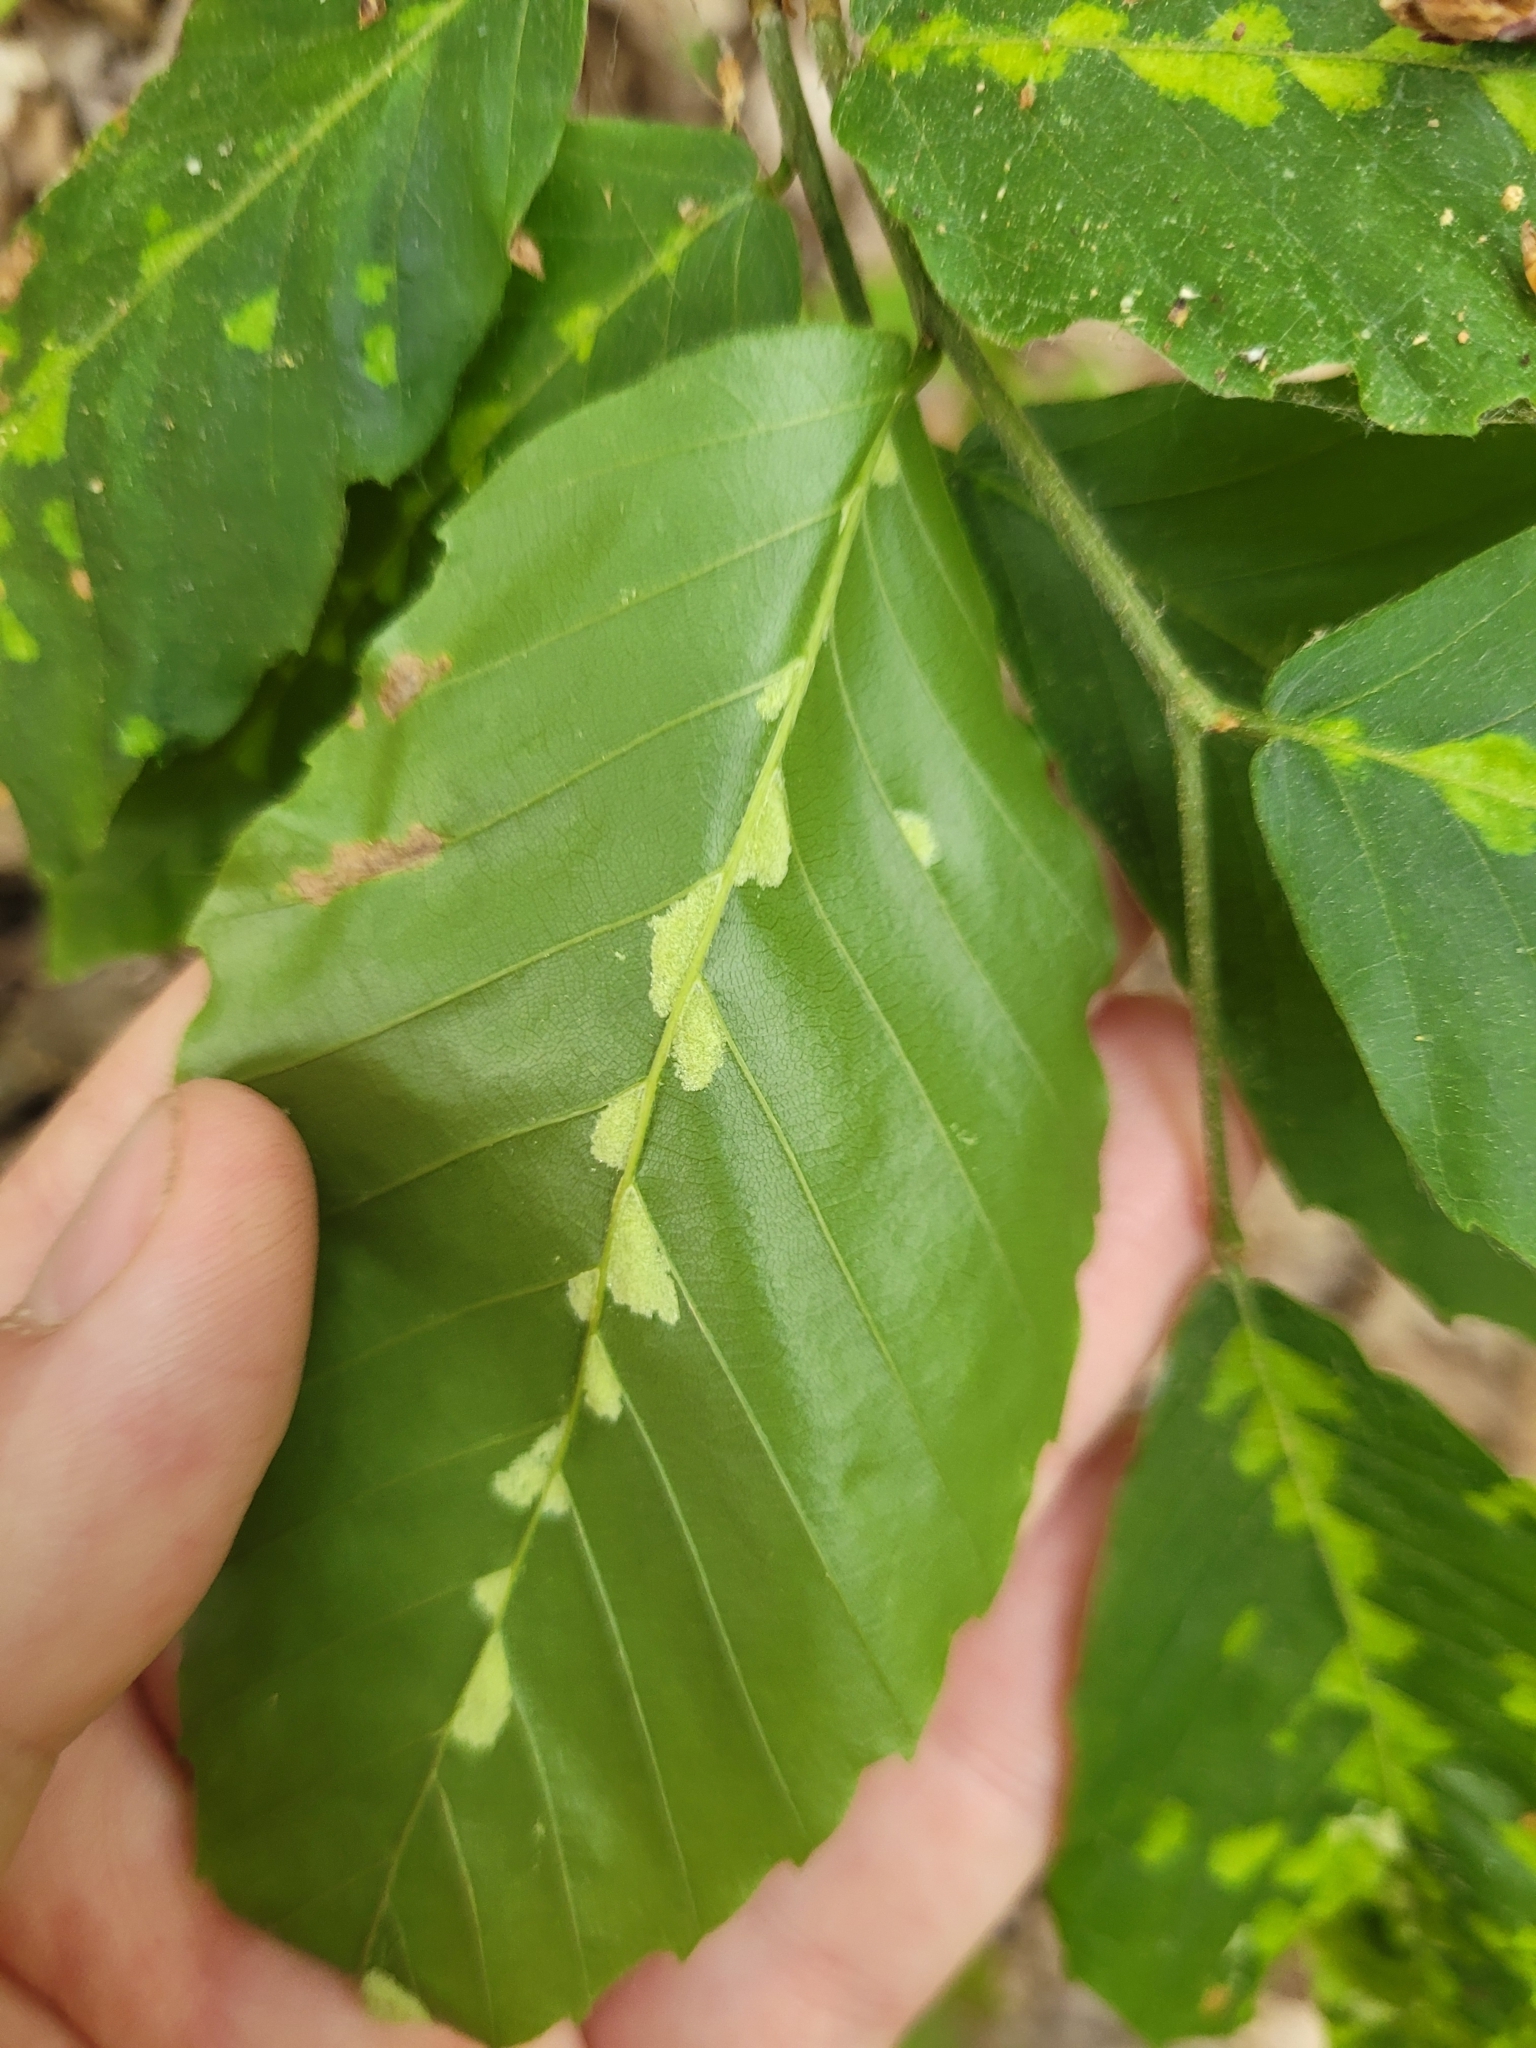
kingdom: Animalia
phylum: Arthropoda
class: Arachnida
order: Trombidiformes
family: Eriophyidae
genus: Acalitus
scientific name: Acalitus
